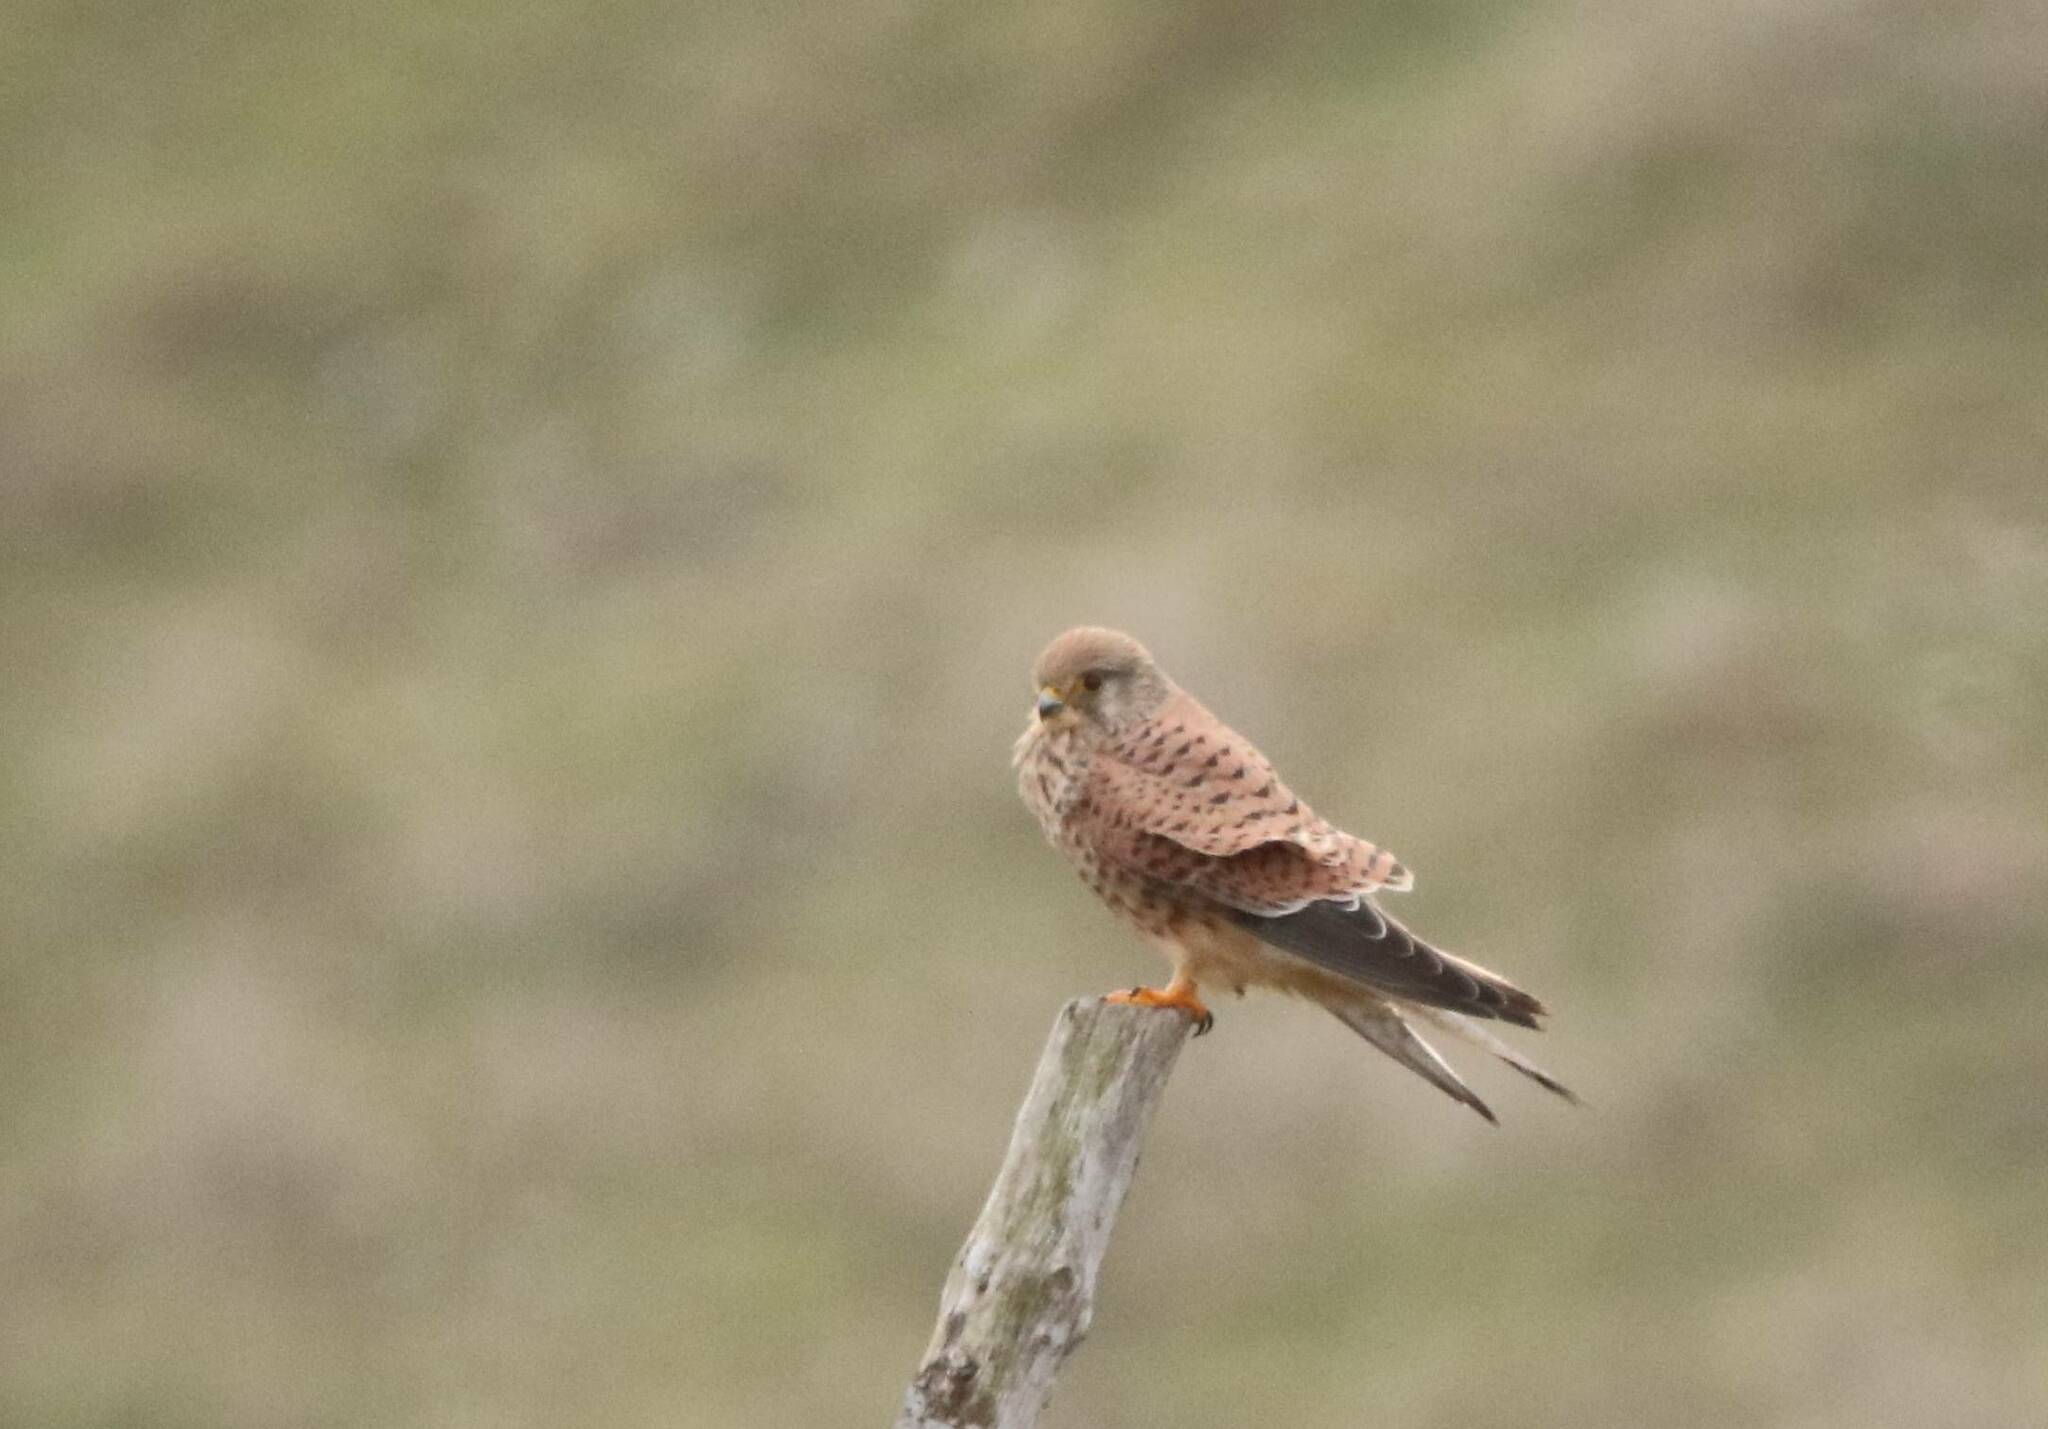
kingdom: Animalia
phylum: Chordata
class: Aves
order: Falconiformes
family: Falconidae
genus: Falco
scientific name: Falco tinnunculus
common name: Common kestrel
